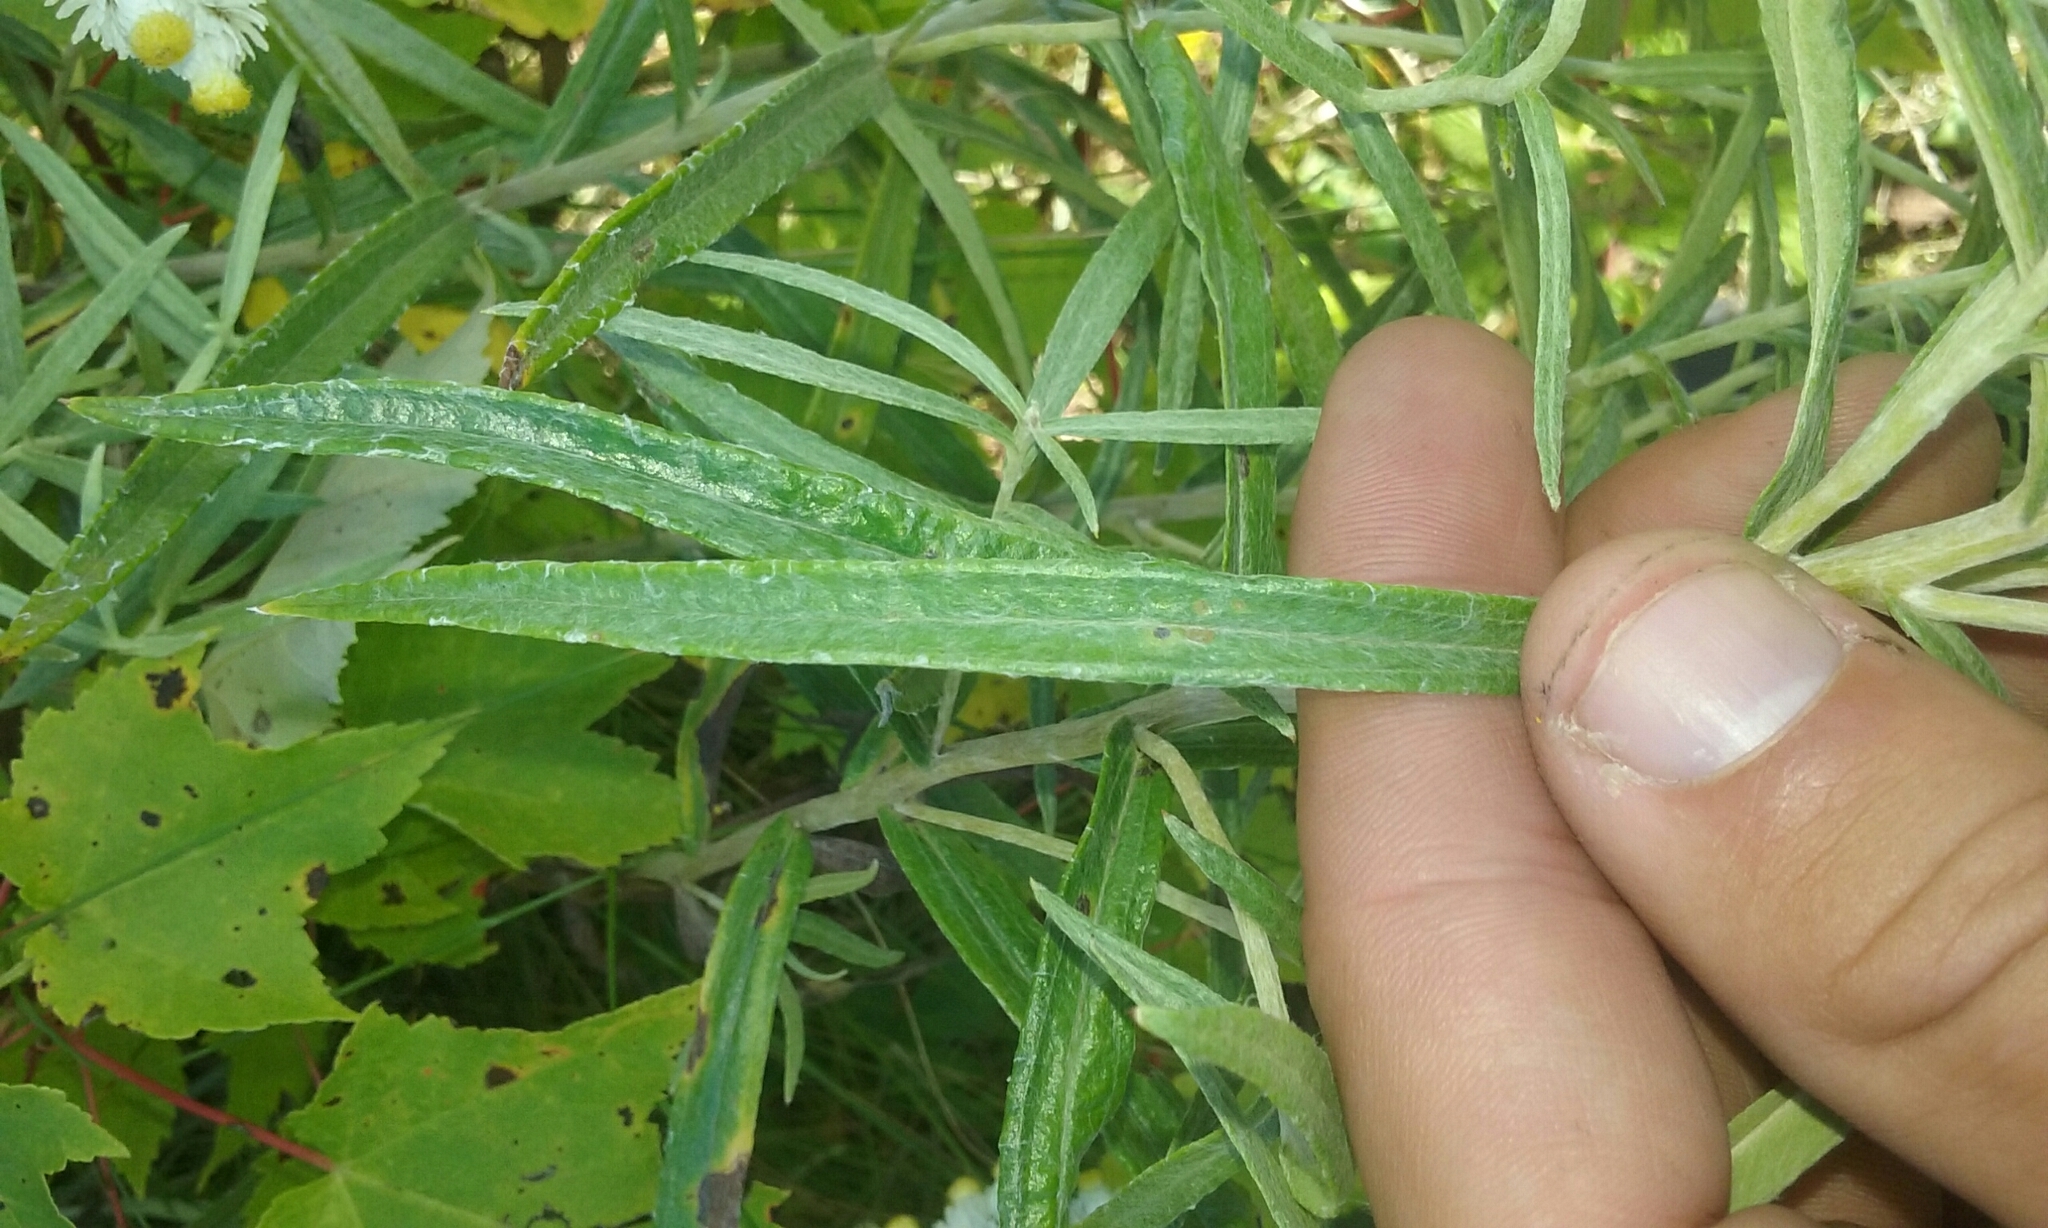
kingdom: Plantae
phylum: Tracheophyta
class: Magnoliopsida
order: Asterales
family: Asteraceae
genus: Anaphalis
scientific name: Anaphalis margaritacea
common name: Pearly everlasting
